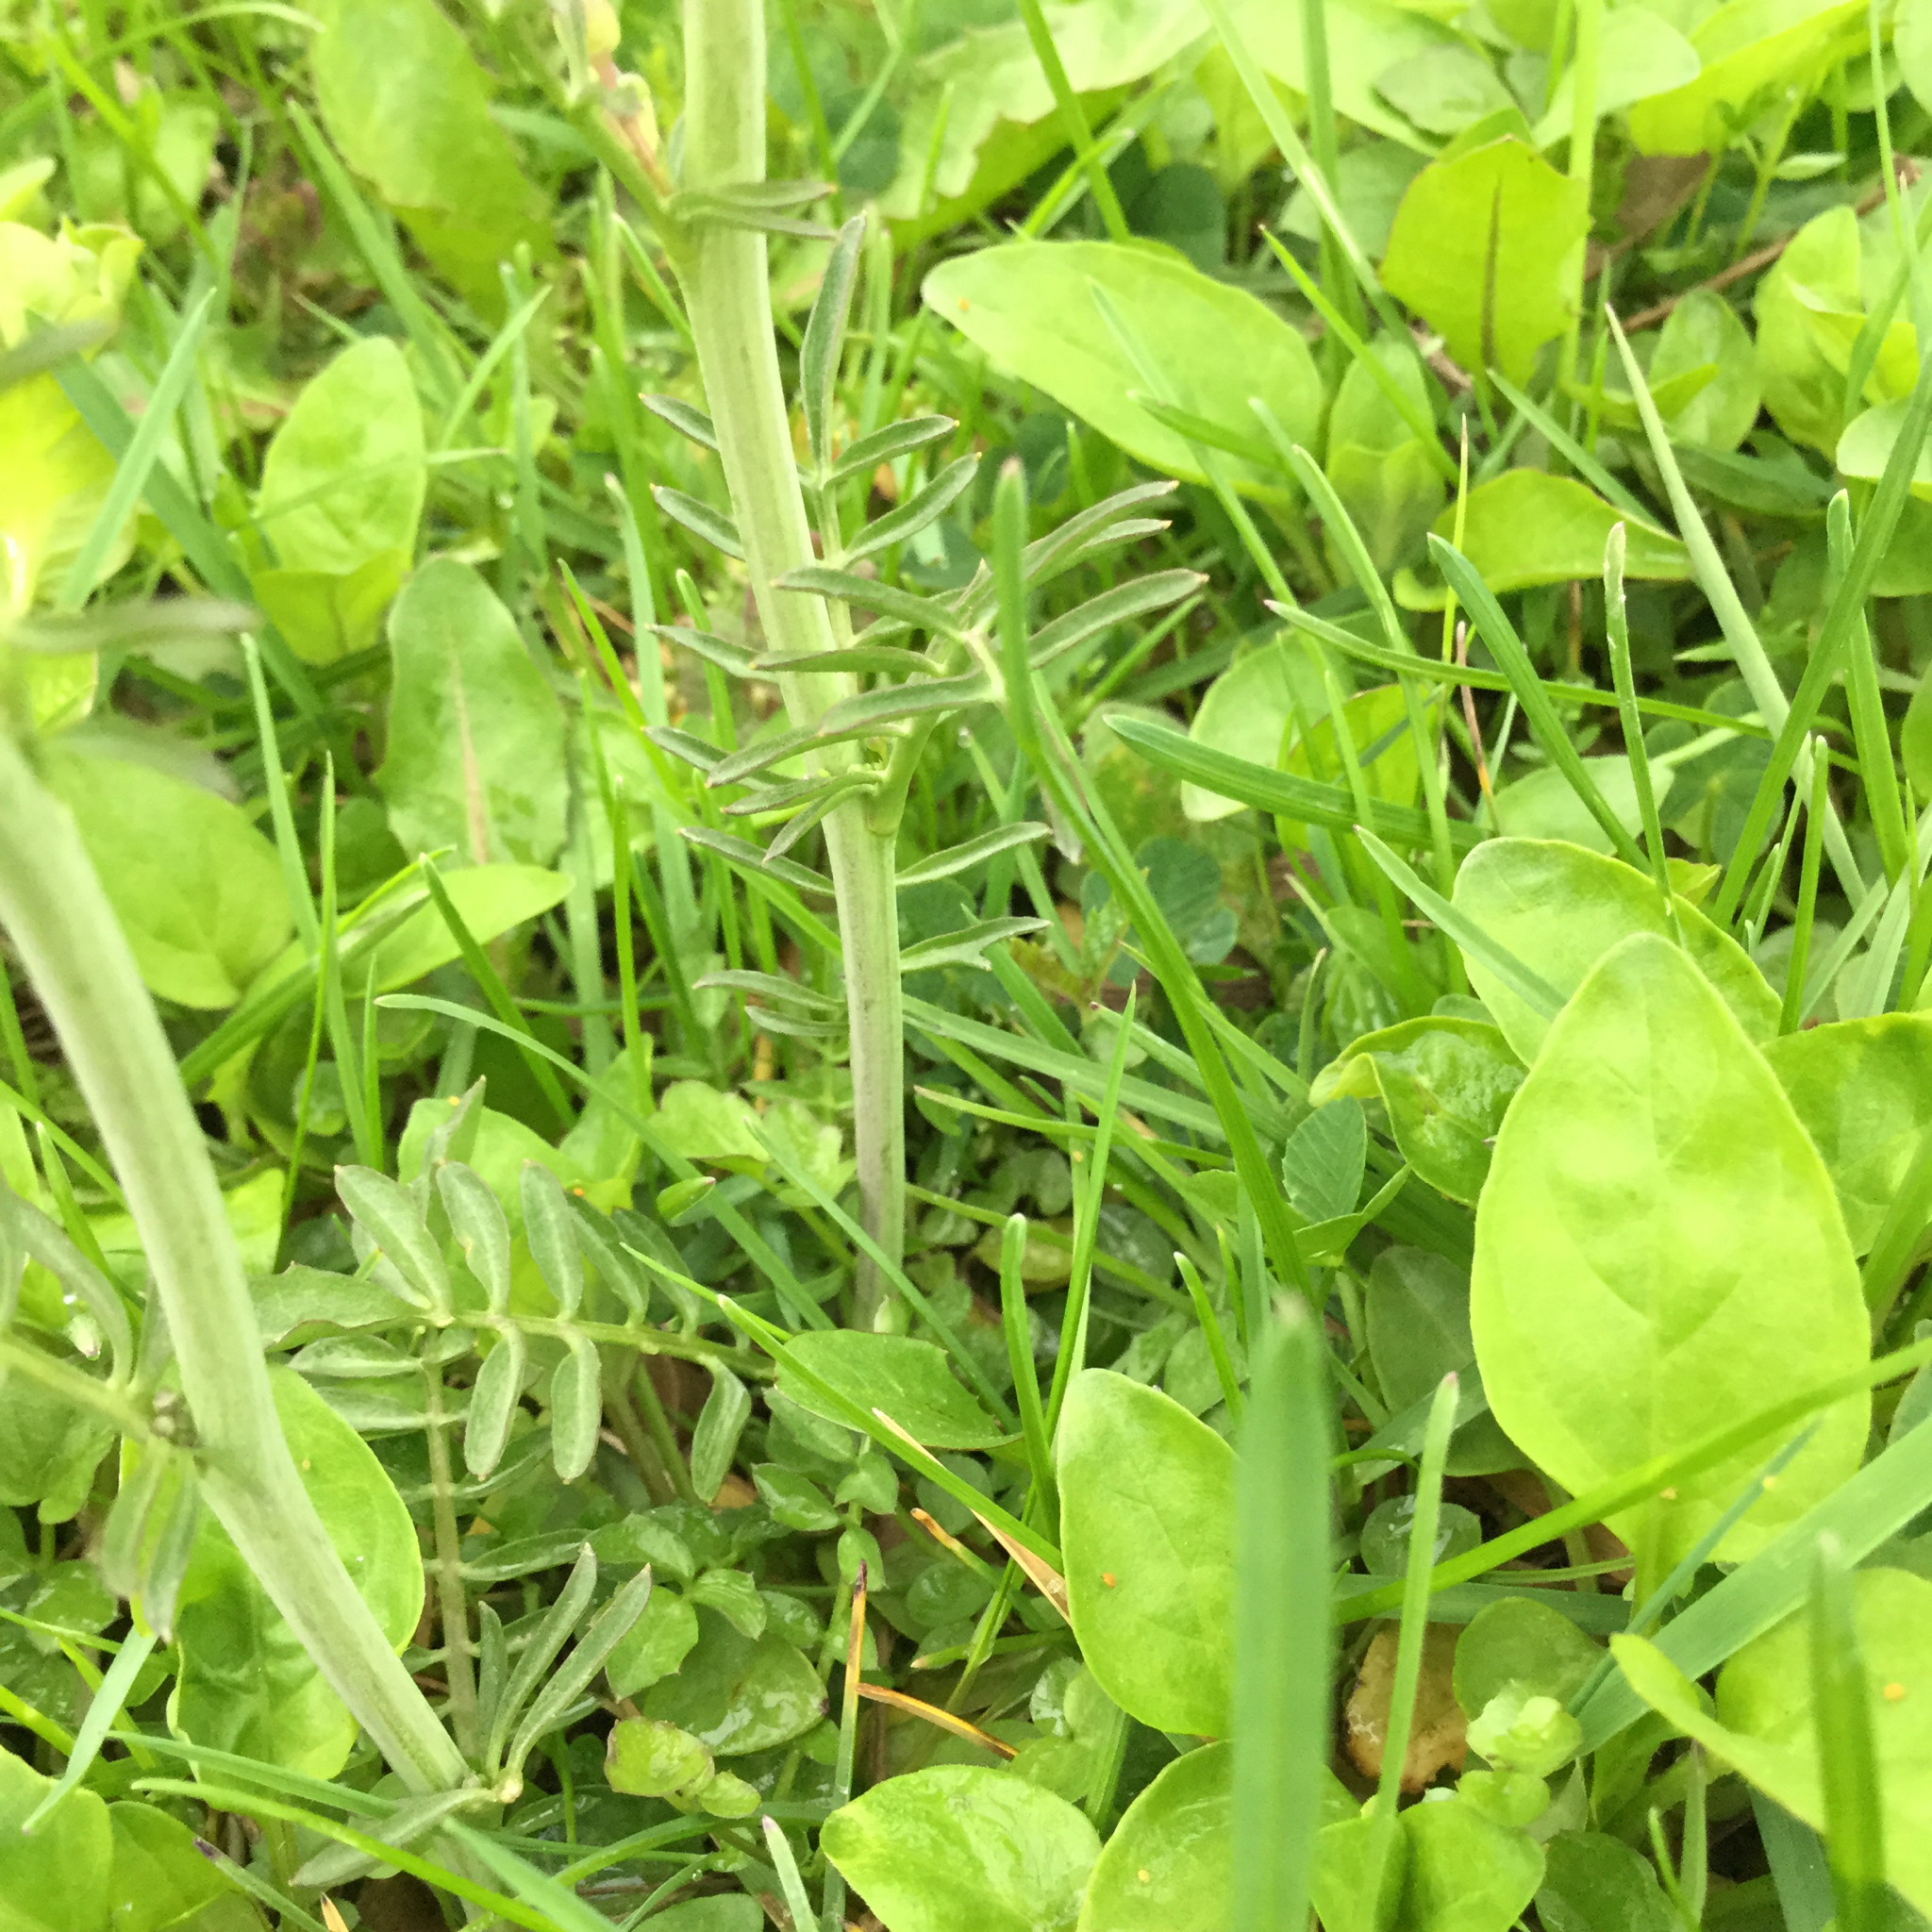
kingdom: Plantae
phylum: Tracheophyta
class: Magnoliopsida
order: Brassicales
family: Brassicaceae
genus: Cardamine
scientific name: Cardamine pratensis
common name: Cuckoo flower
